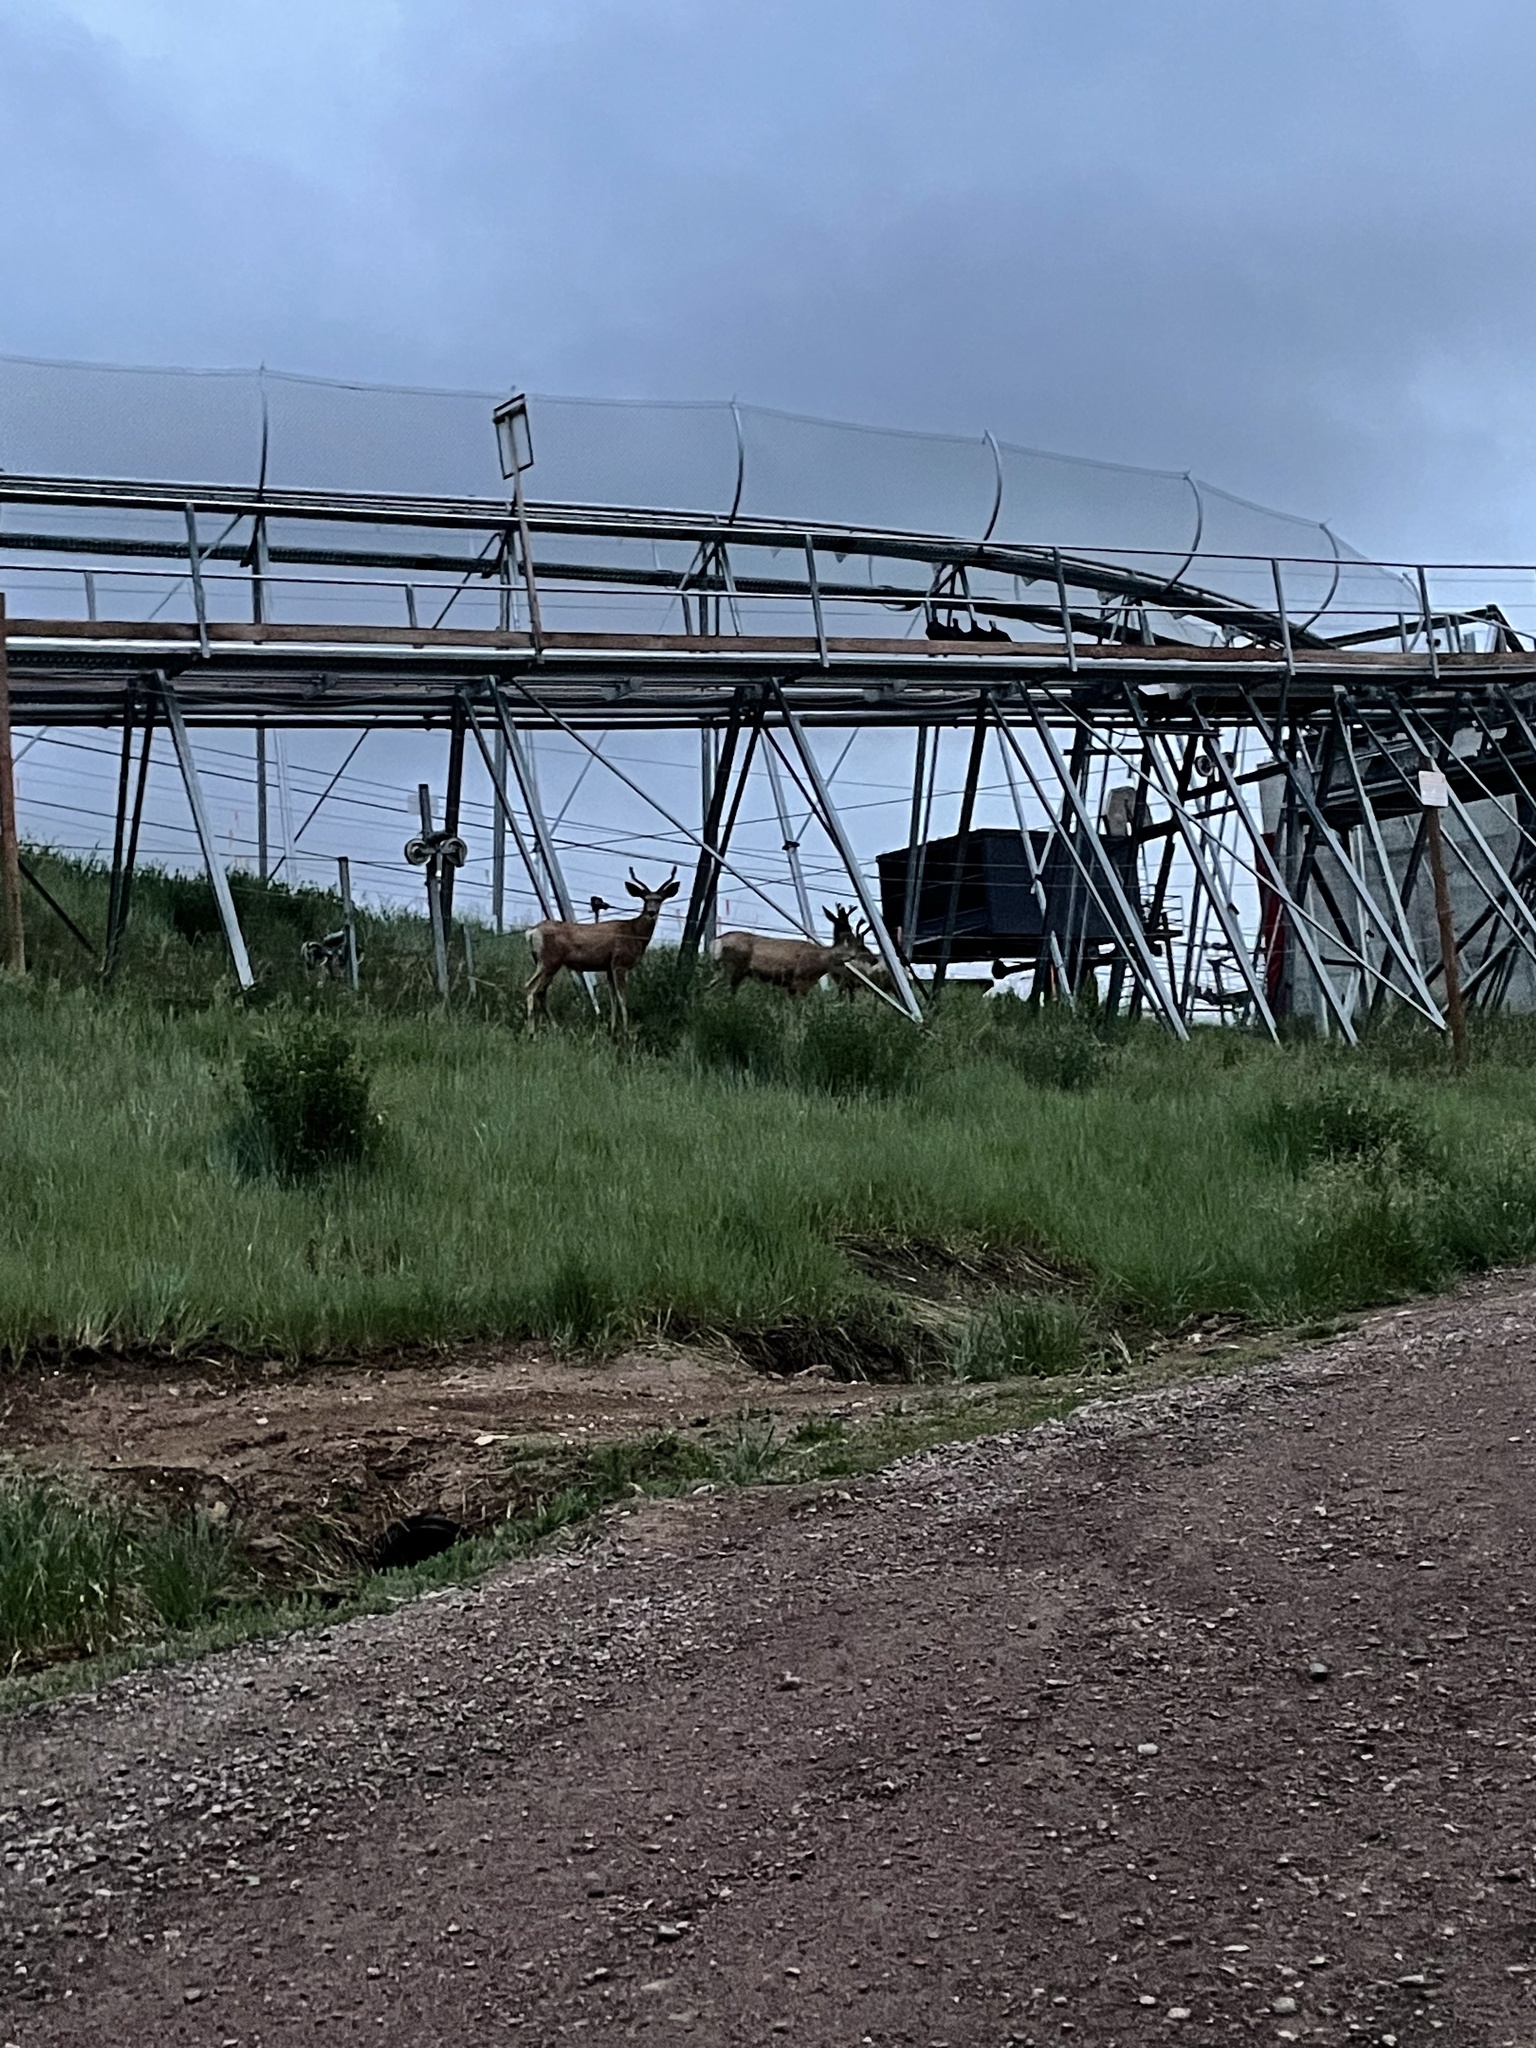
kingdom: Animalia
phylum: Chordata
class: Mammalia
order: Artiodactyla
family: Cervidae
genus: Odocoileus
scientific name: Odocoileus hemionus
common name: Mule deer
